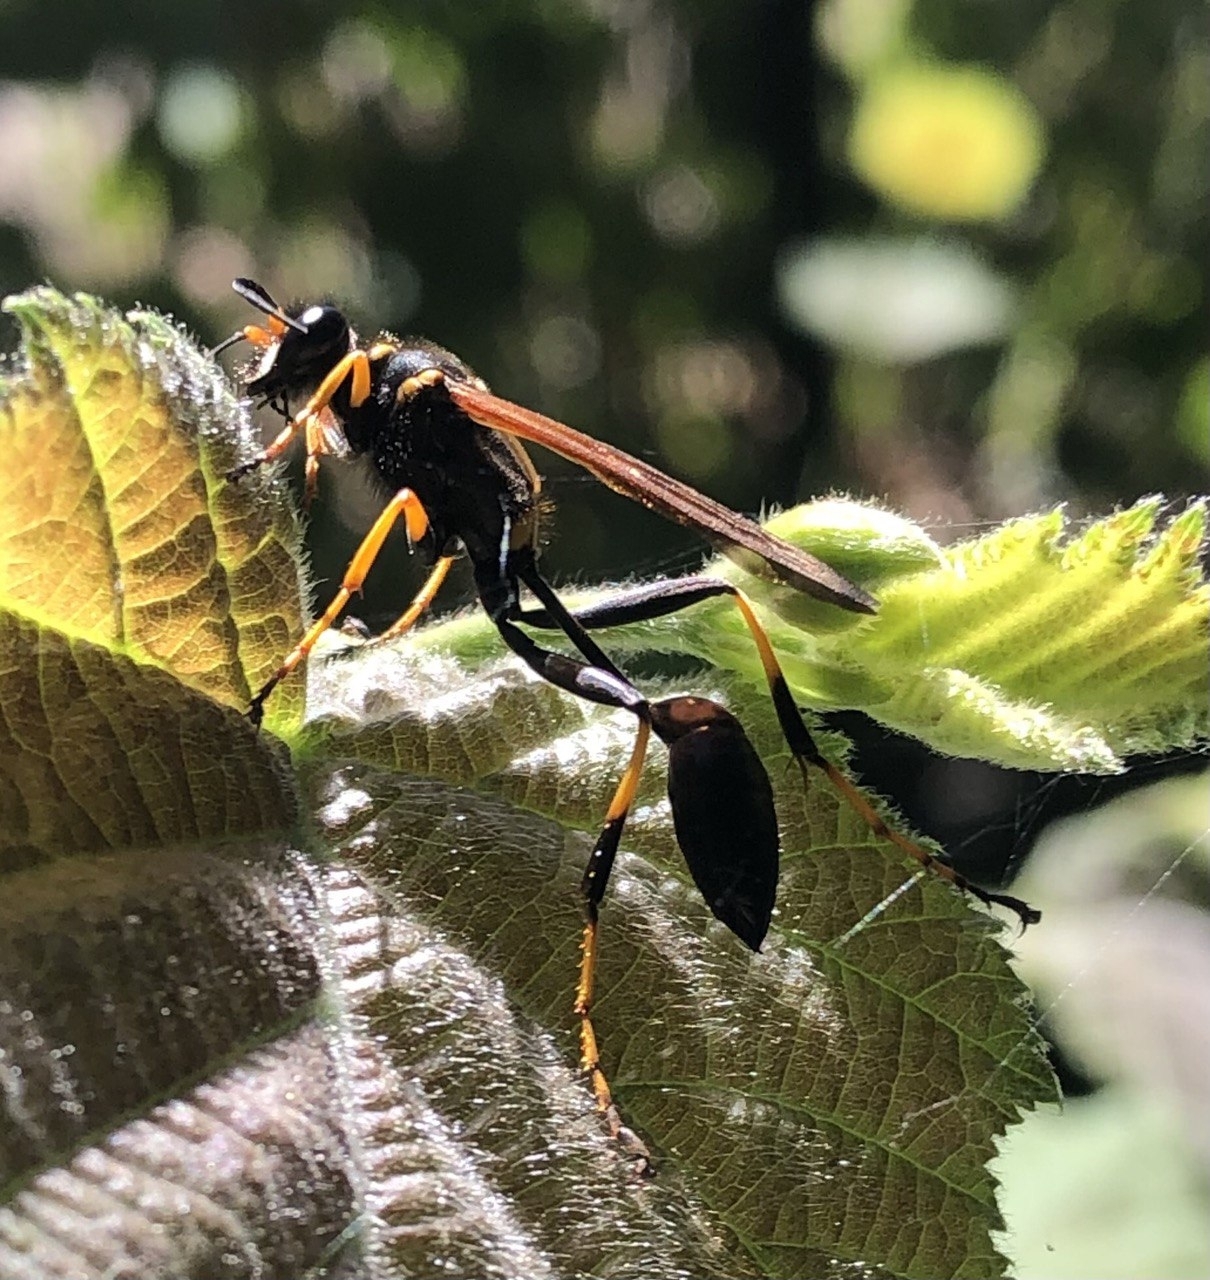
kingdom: Animalia
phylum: Arthropoda
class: Insecta
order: Hymenoptera
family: Sphecidae
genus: Sceliphron
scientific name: Sceliphron caementarium
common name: Mud dauber
